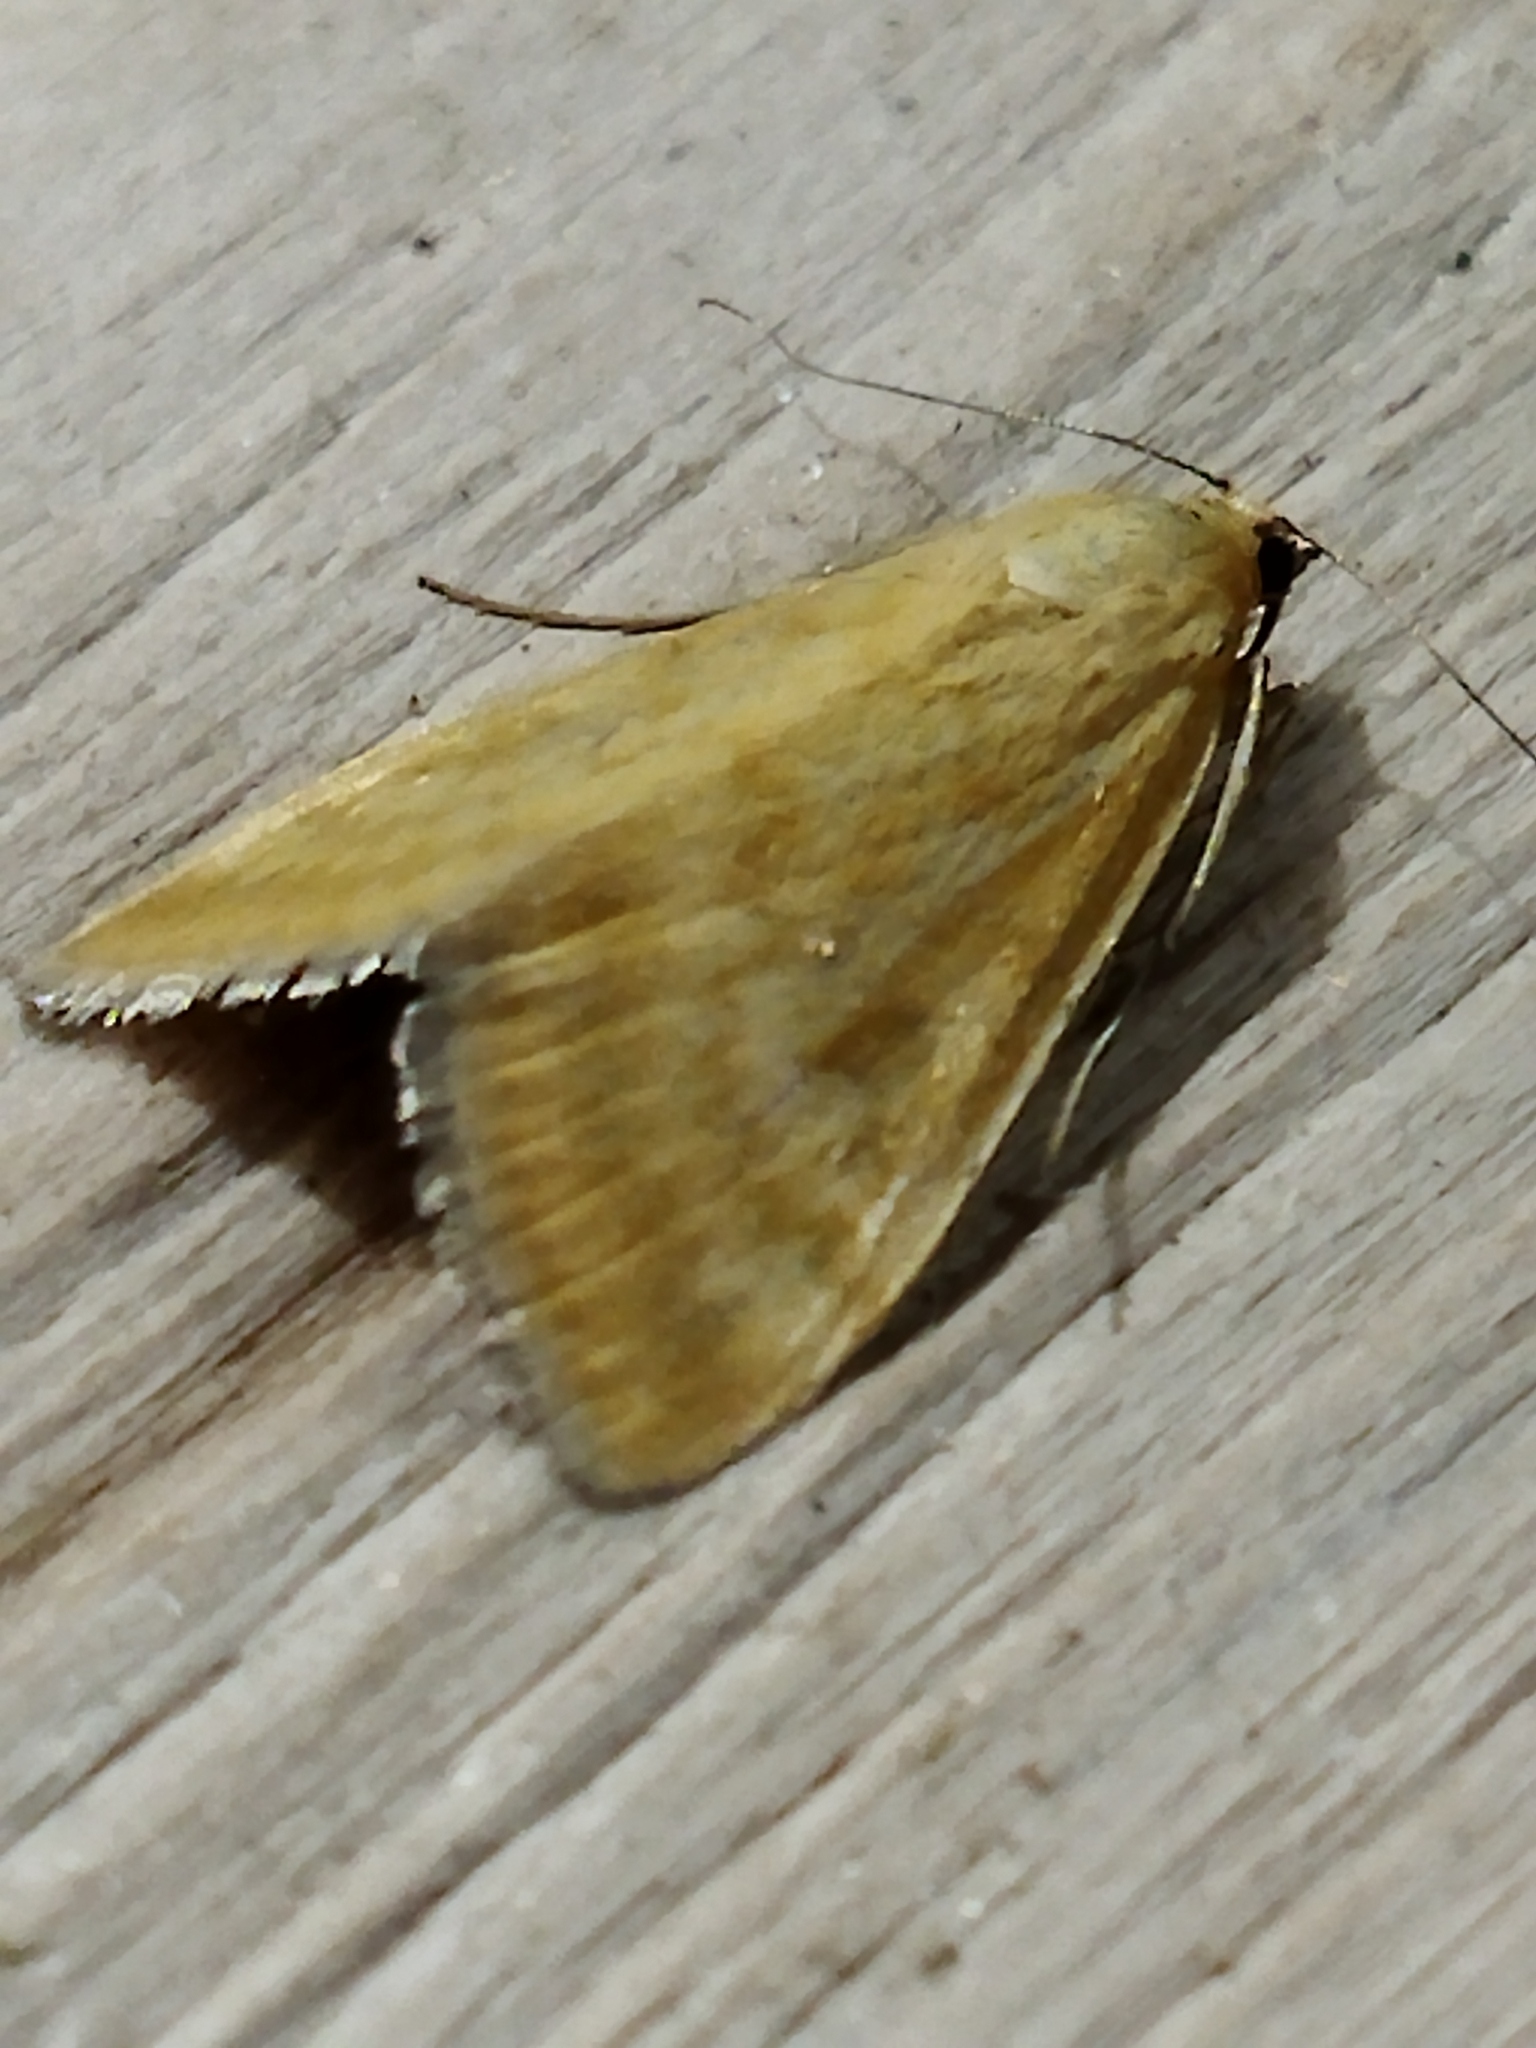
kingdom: Animalia
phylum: Arthropoda
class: Insecta
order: Lepidoptera
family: Crambidae
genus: Sitochroa
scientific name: Sitochroa verticalis
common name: Lesser pearl
